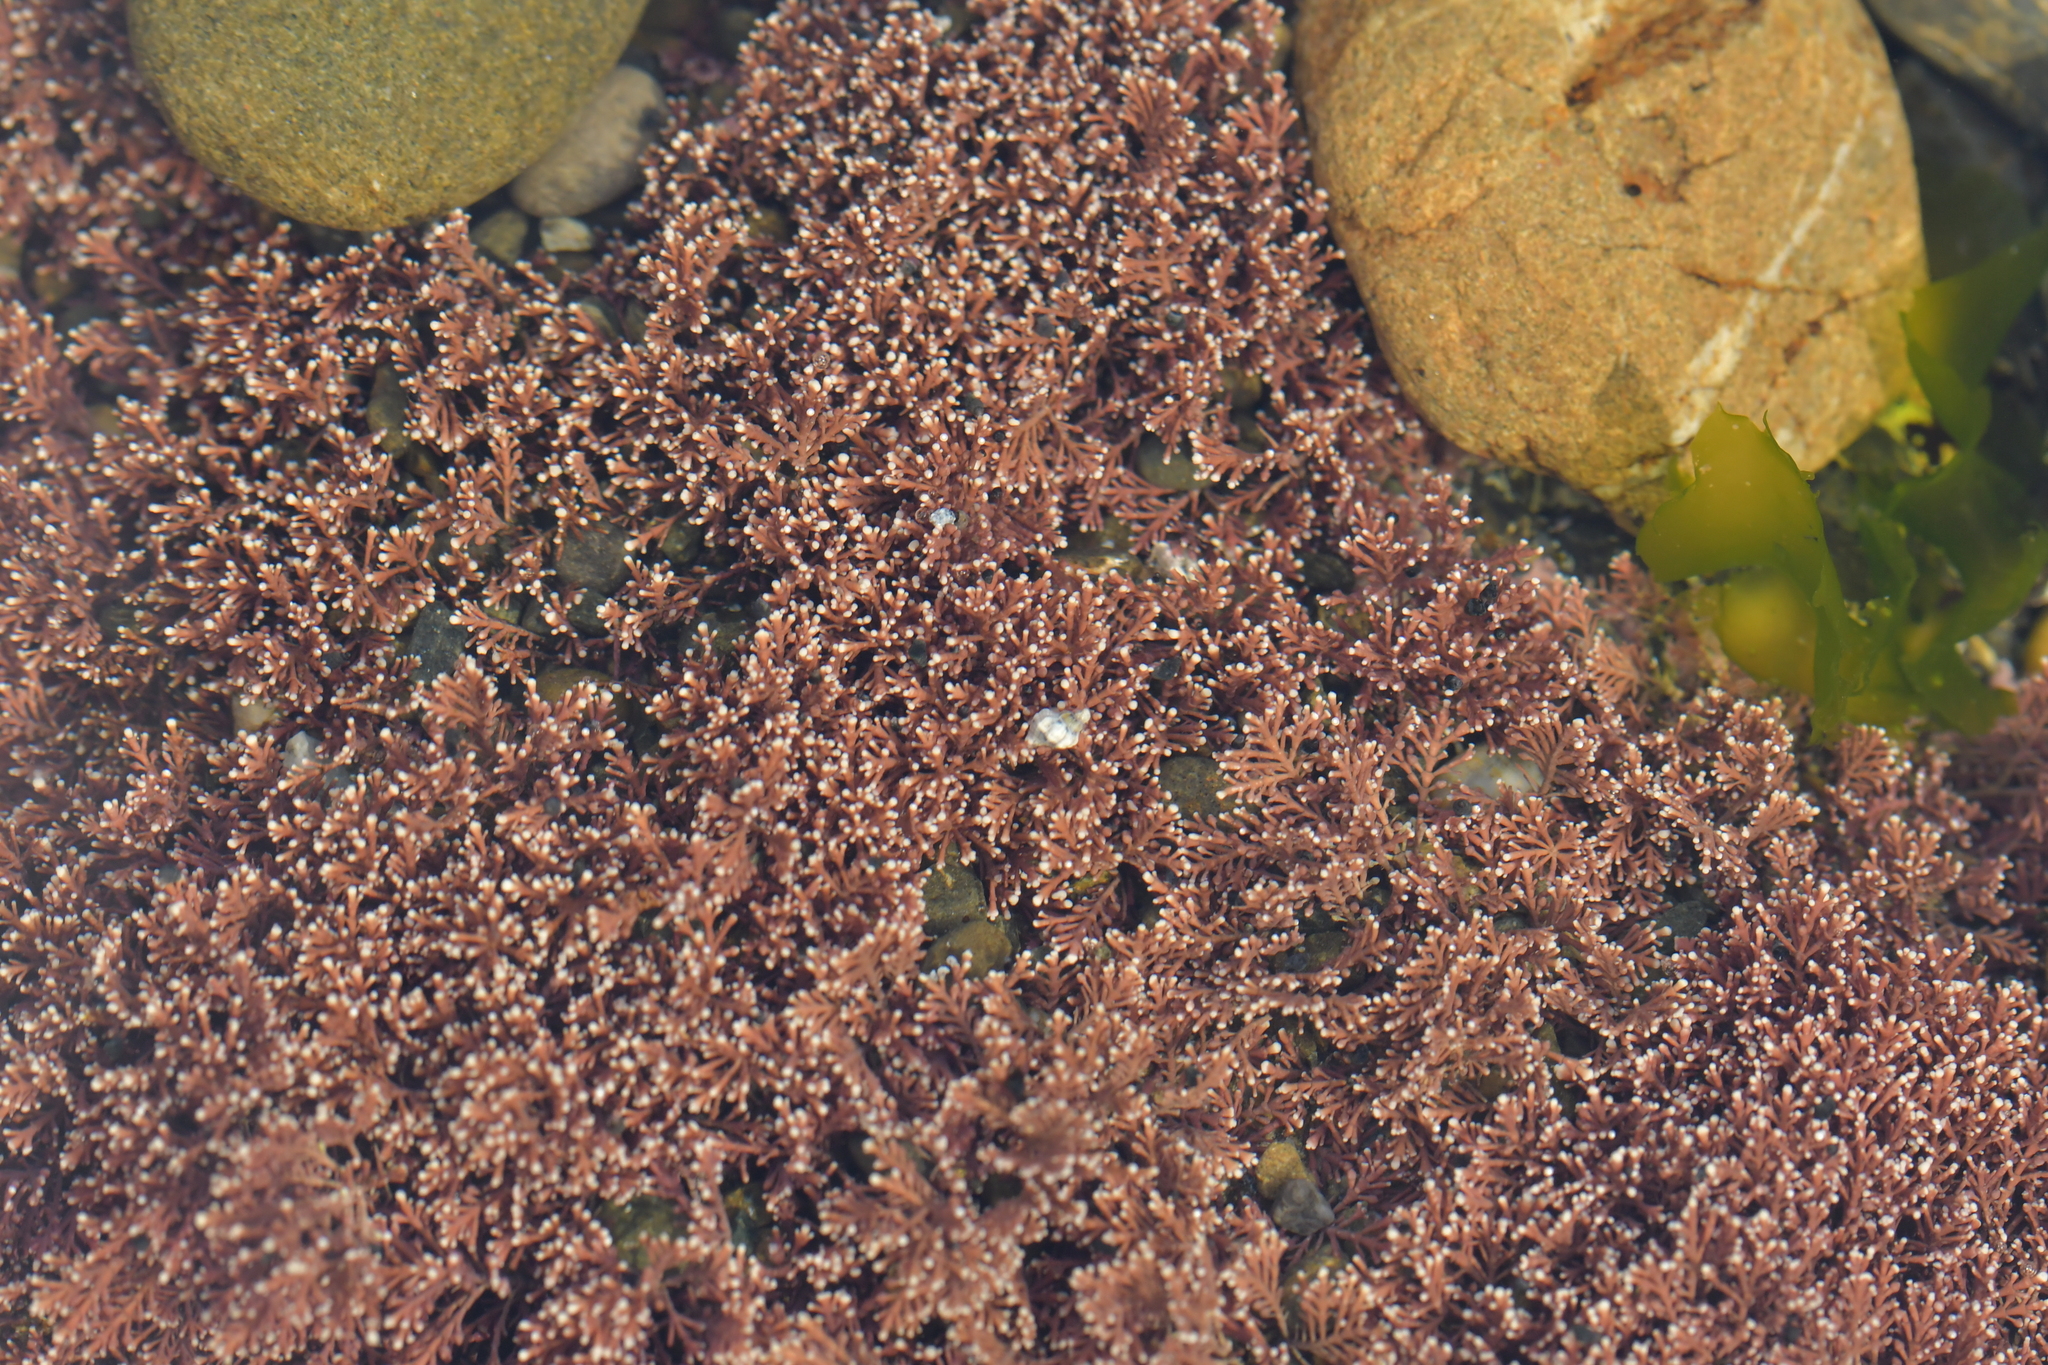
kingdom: Plantae
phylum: Rhodophyta
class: Florideophyceae
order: Corallinales
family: Corallinaceae
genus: Corallina
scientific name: Corallina officinalis
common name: Coral weed
